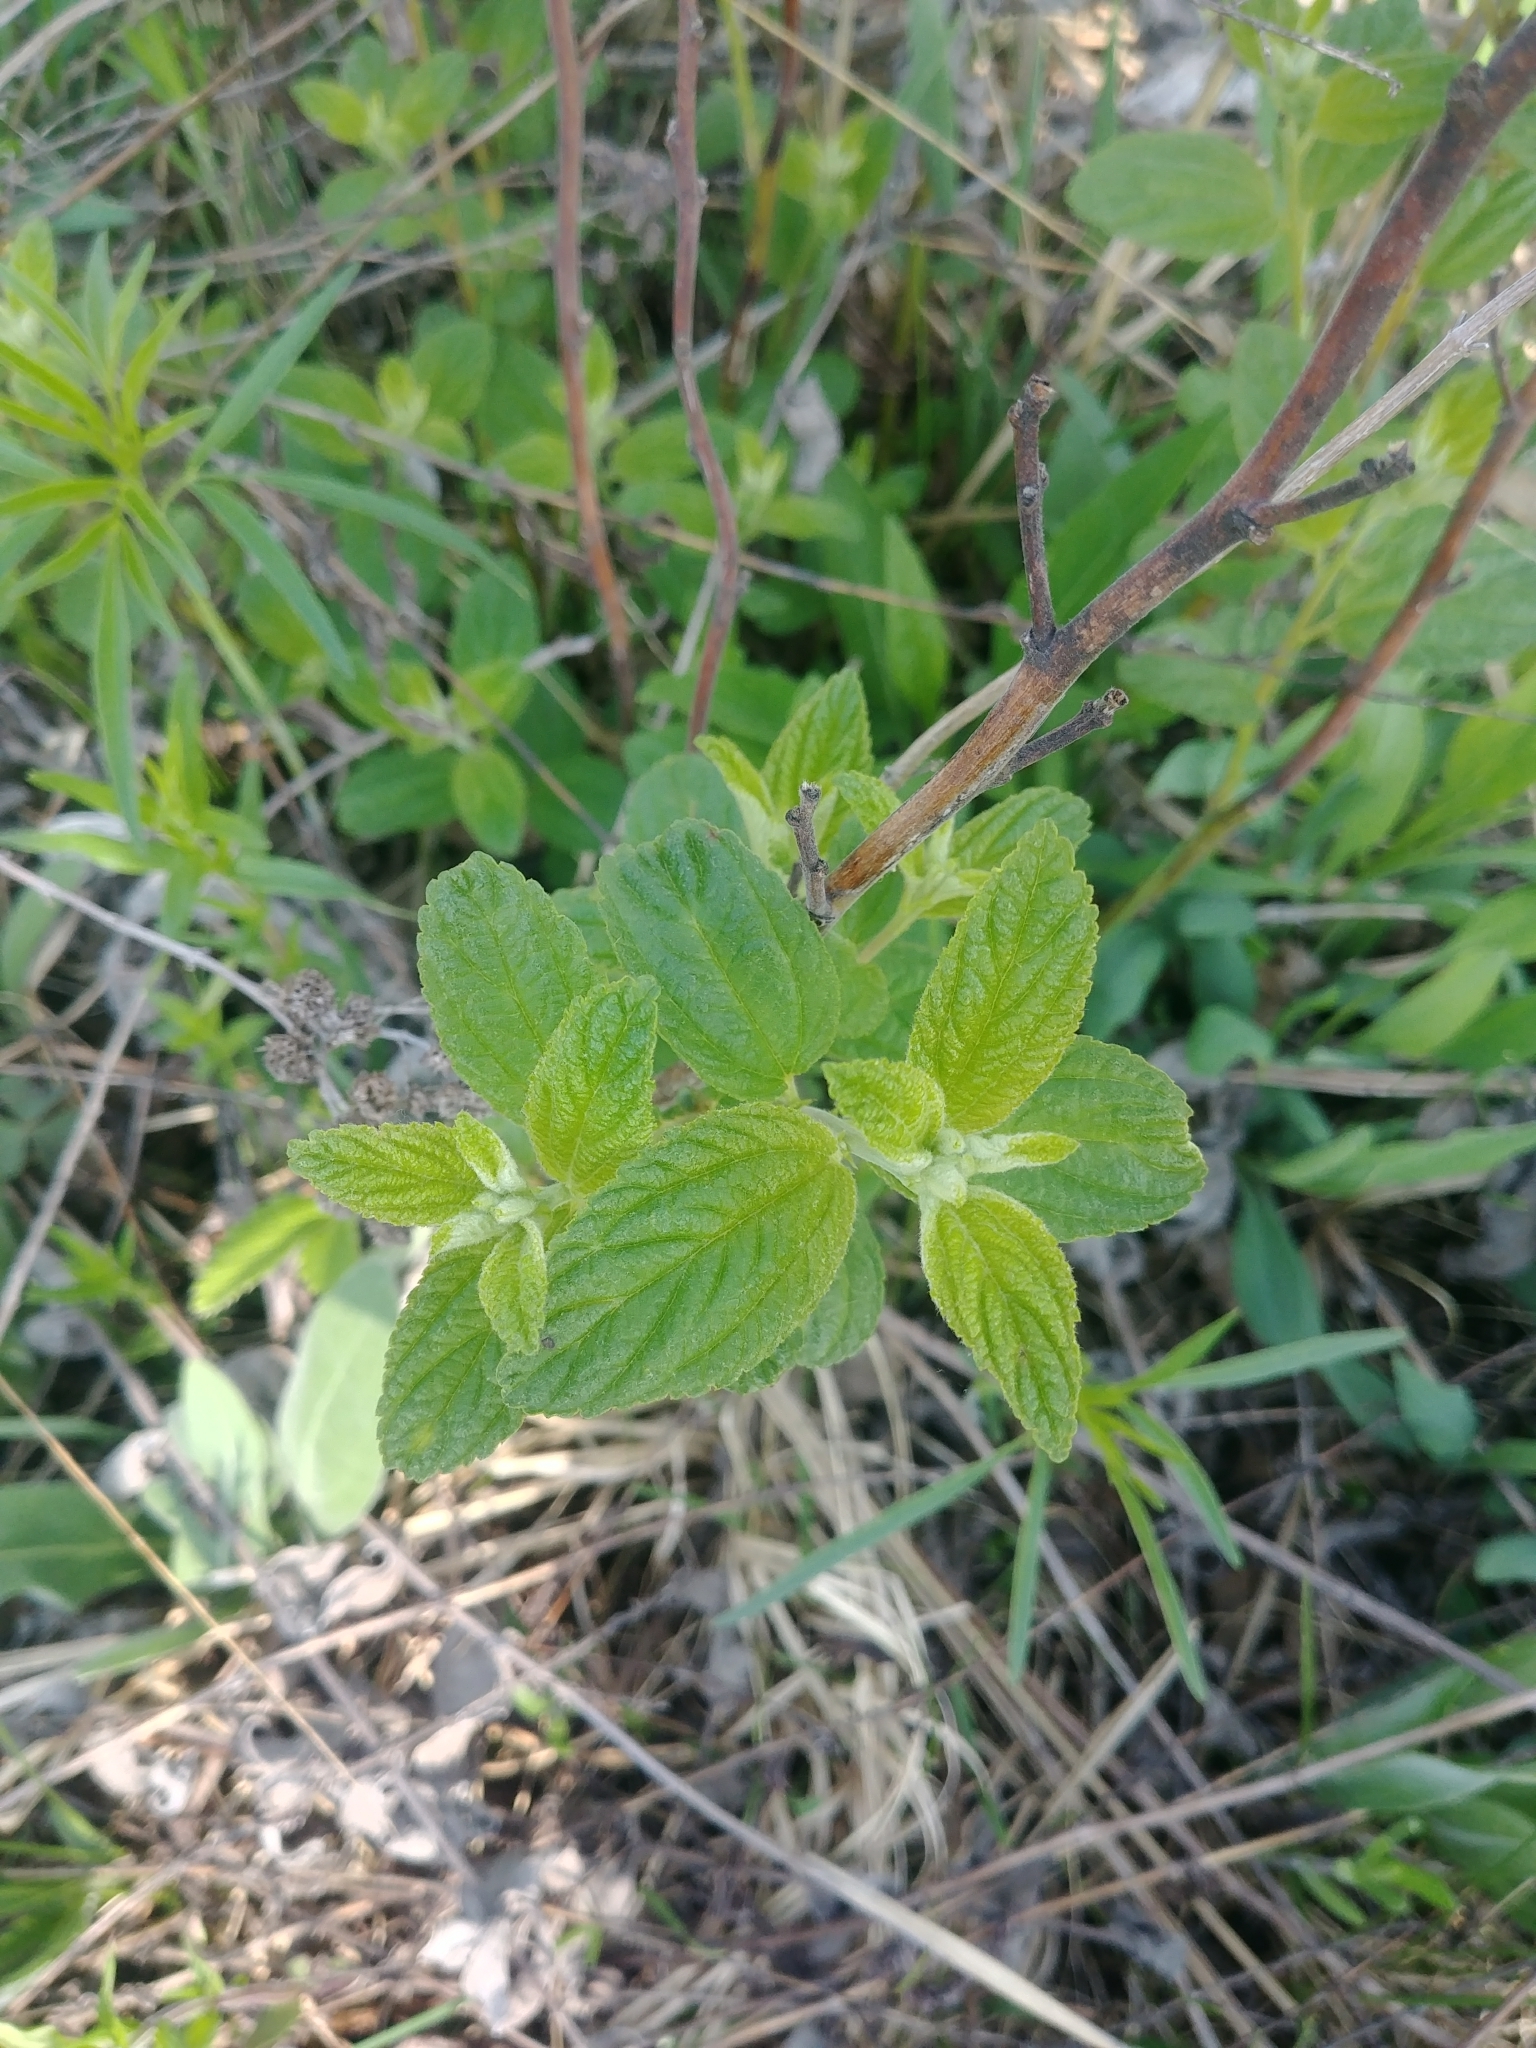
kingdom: Plantae
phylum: Tracheophyta
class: Magnoliopsida
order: Rosales
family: Rhamnaceae
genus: Ceanothus
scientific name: Ceanothus americanus
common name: Redroot
